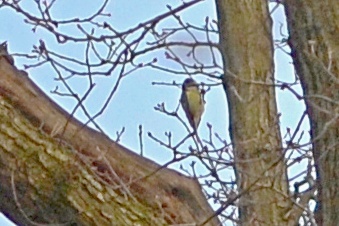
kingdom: Animalia
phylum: Chordata
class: Aves
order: Passeriformes
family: Paridae
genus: Cyanistes
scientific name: Cyanistes caeruleus
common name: Eurasian blue tit
